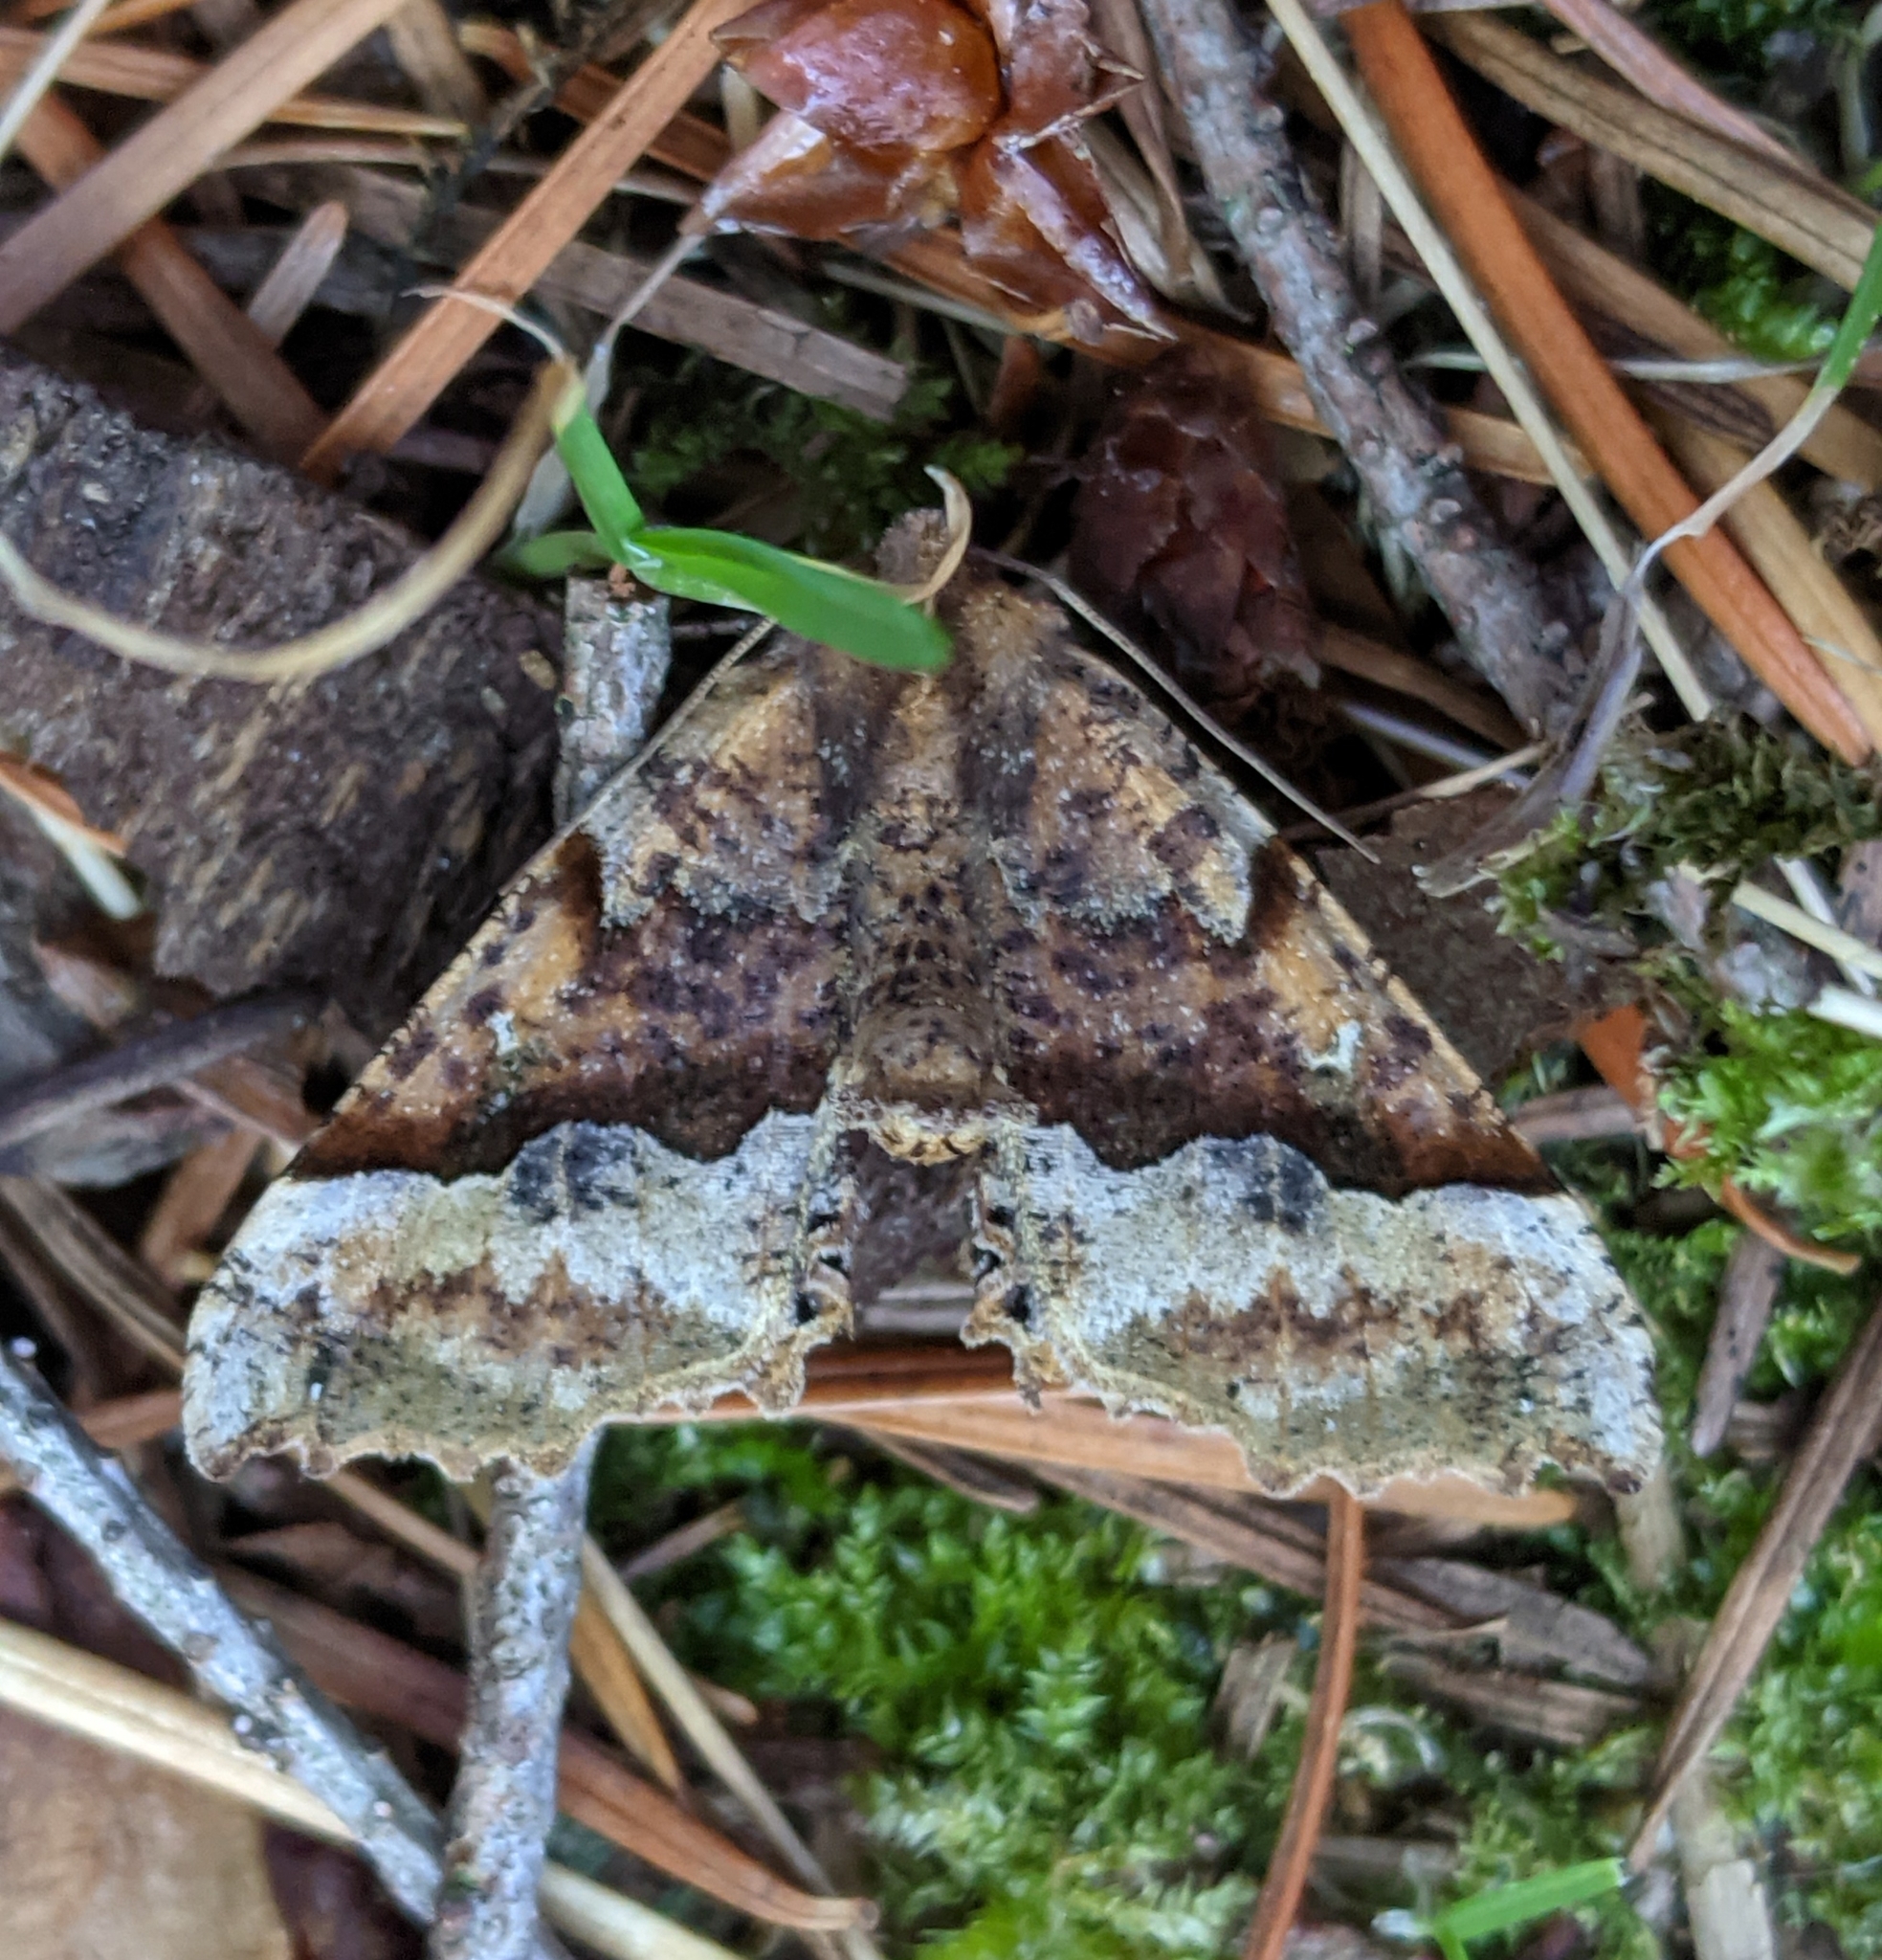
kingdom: Animalia
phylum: Arthropoda
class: Insecta
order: Lepidoptera
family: Geometridae
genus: Pero
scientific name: Pero morrisonaria
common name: Morrison's pero
